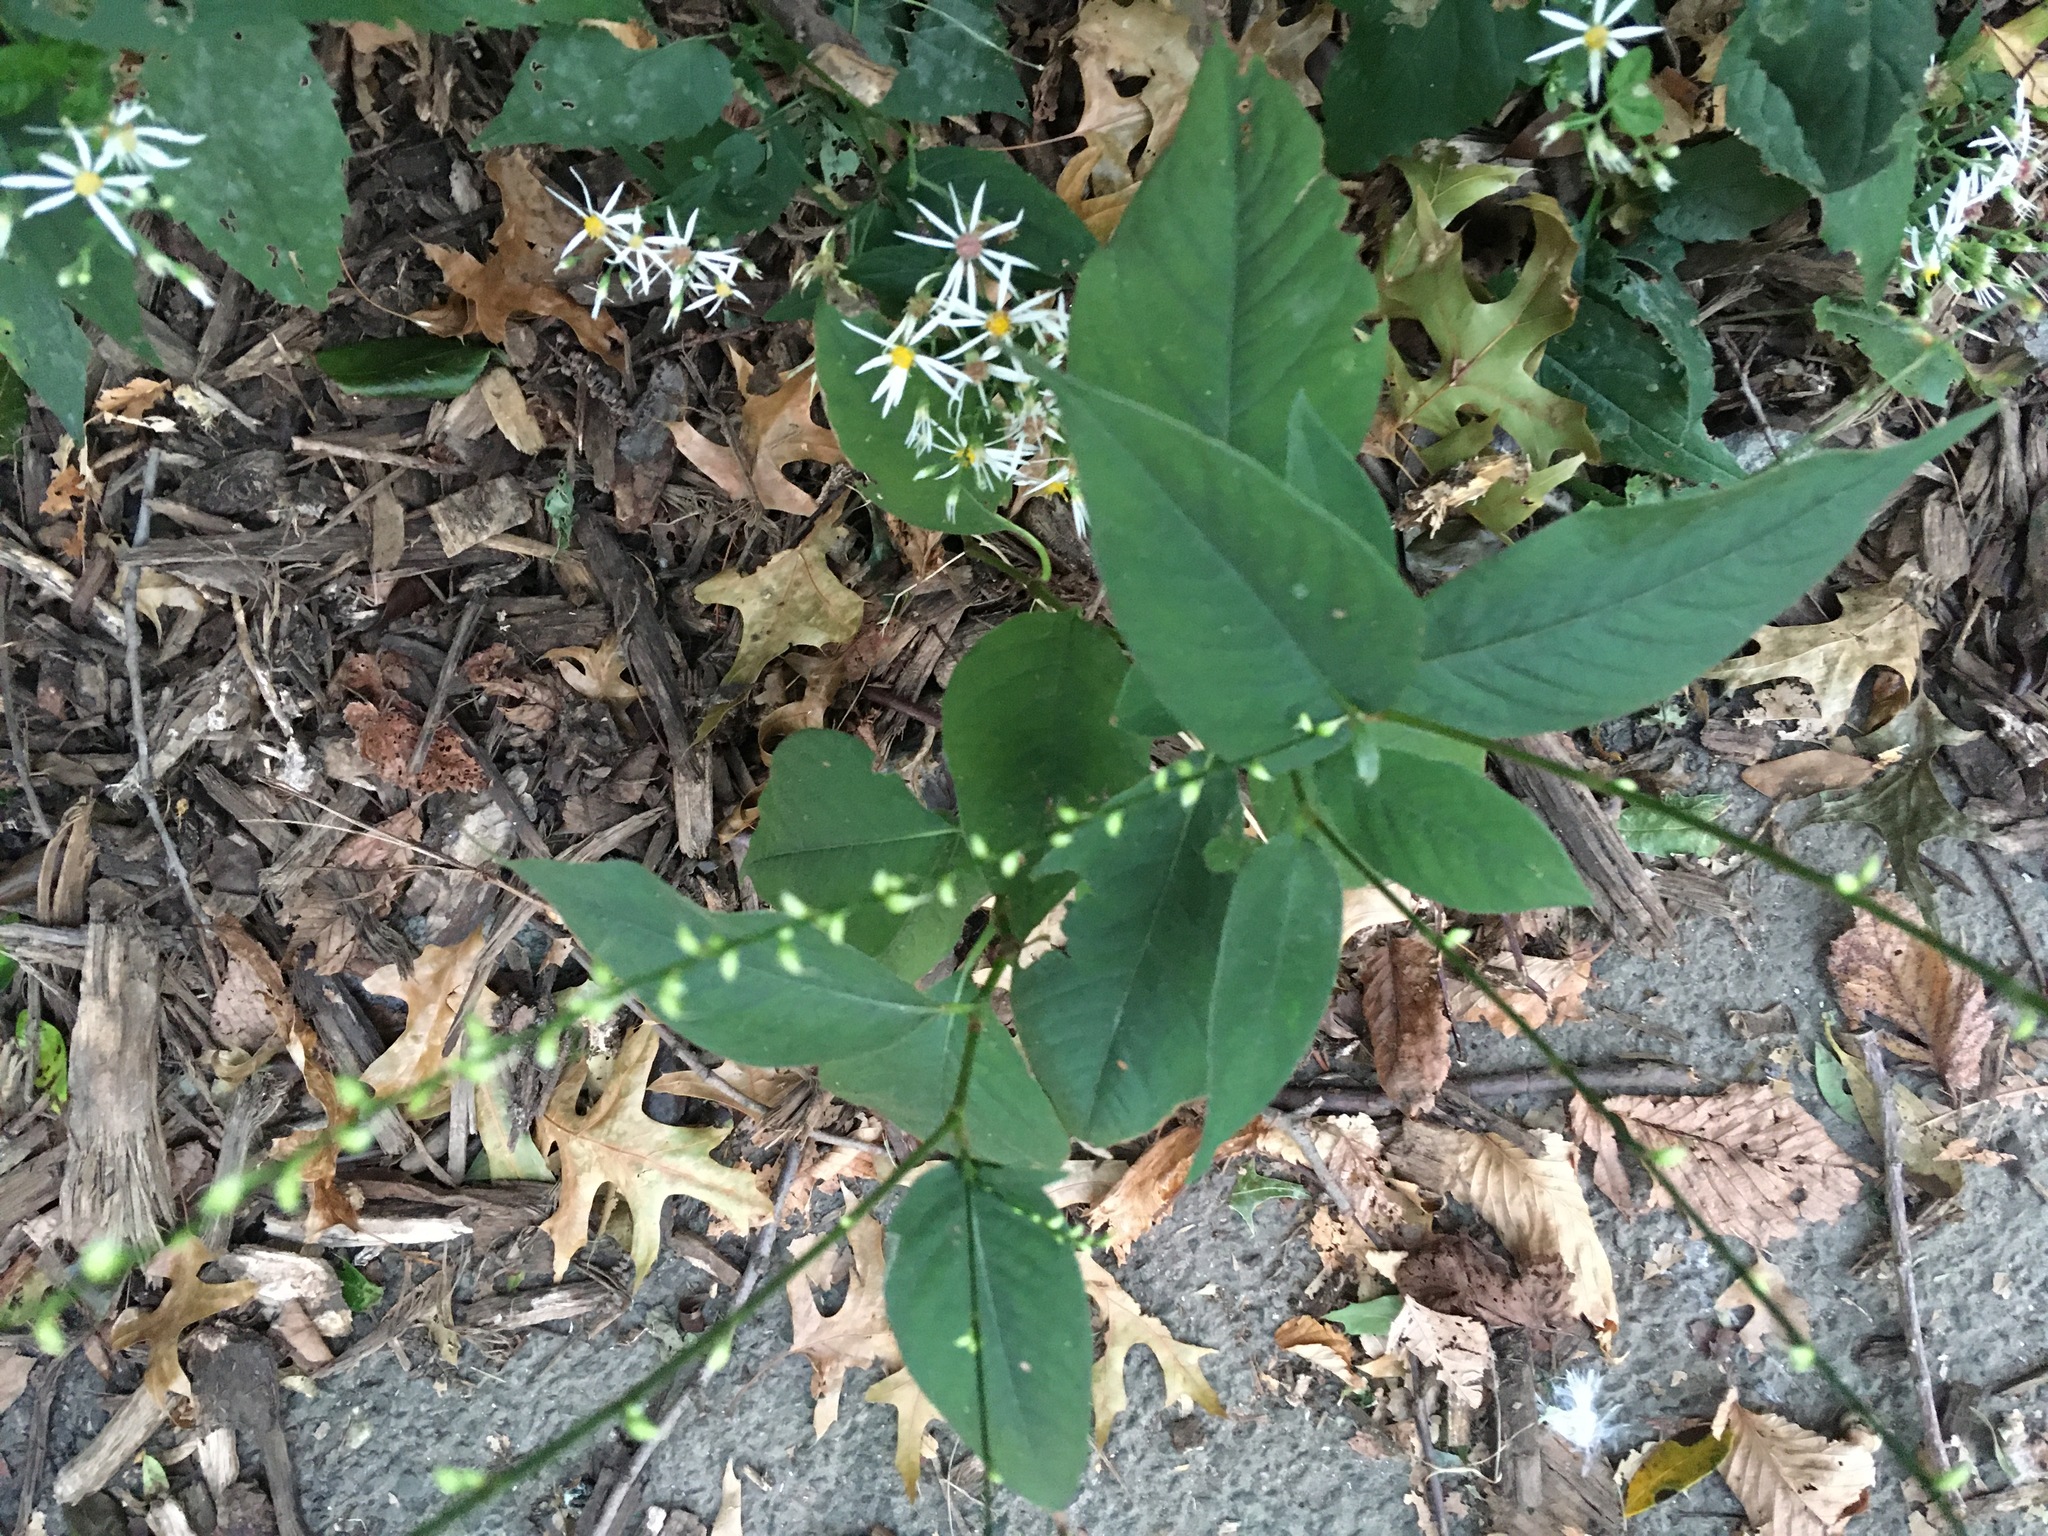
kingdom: Plantae
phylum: Tracheophyta
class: Magnoliopsida
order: Caryophyllales
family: Polygonaceae
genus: Persicaria
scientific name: Persicaria virginiana
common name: Jumpseed
